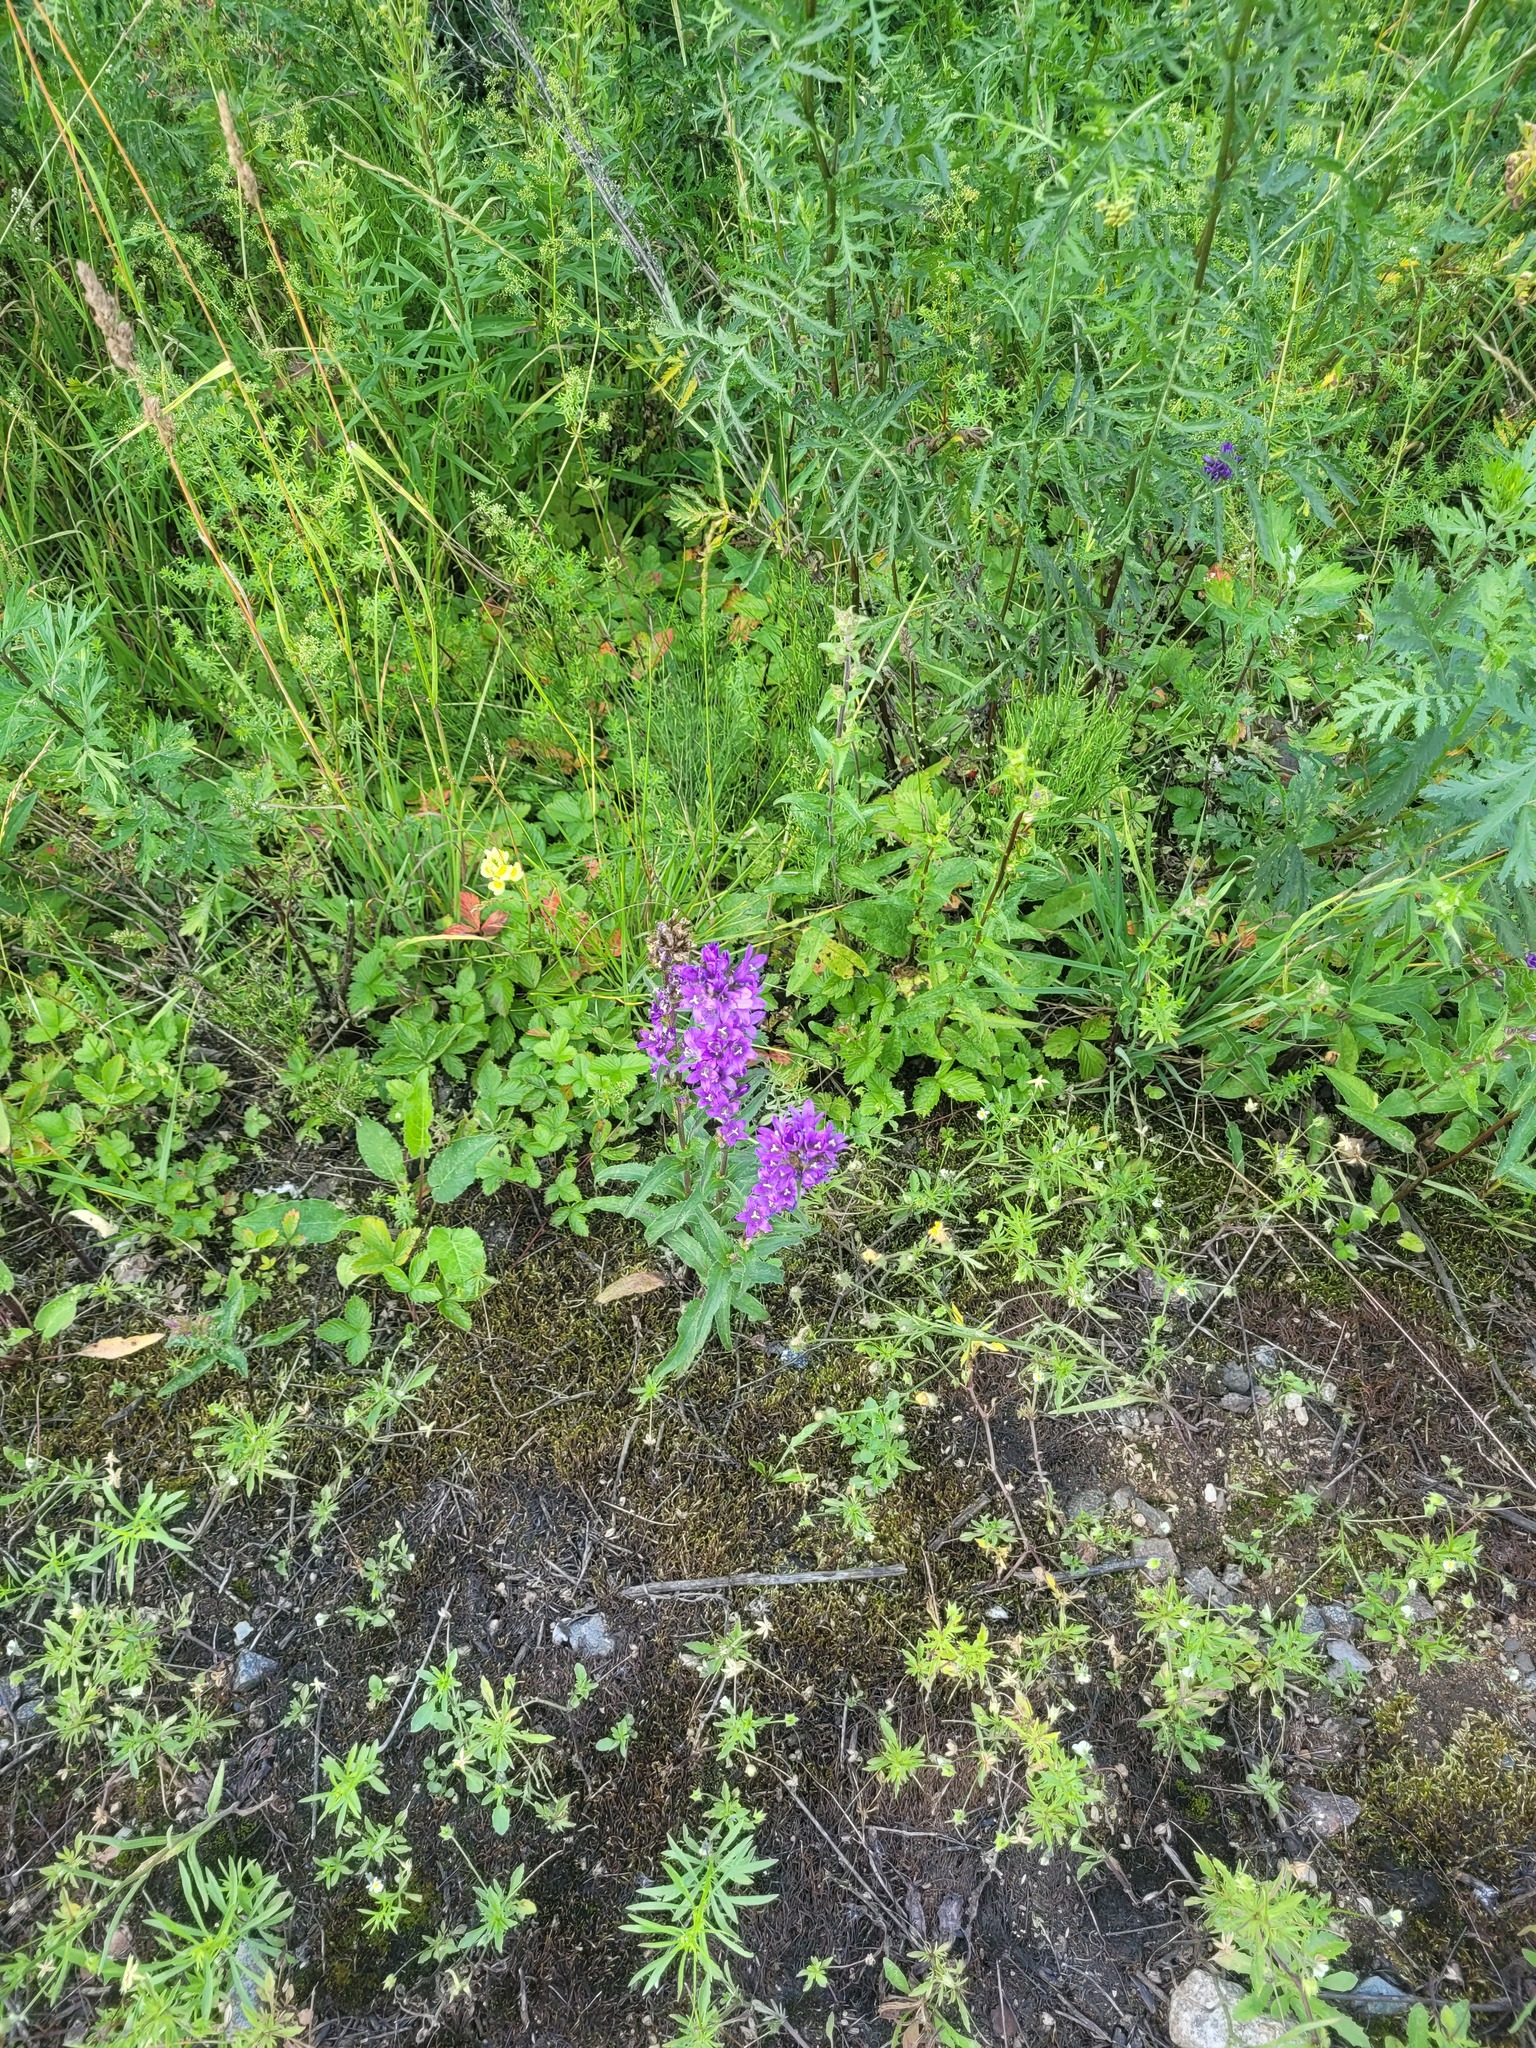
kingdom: Plantae
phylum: Tracheophyta
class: Magnoliopsida
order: Asterales
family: Campanulaceae
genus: Campanula
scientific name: Campanula glomerata
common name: Clustered bellflower
